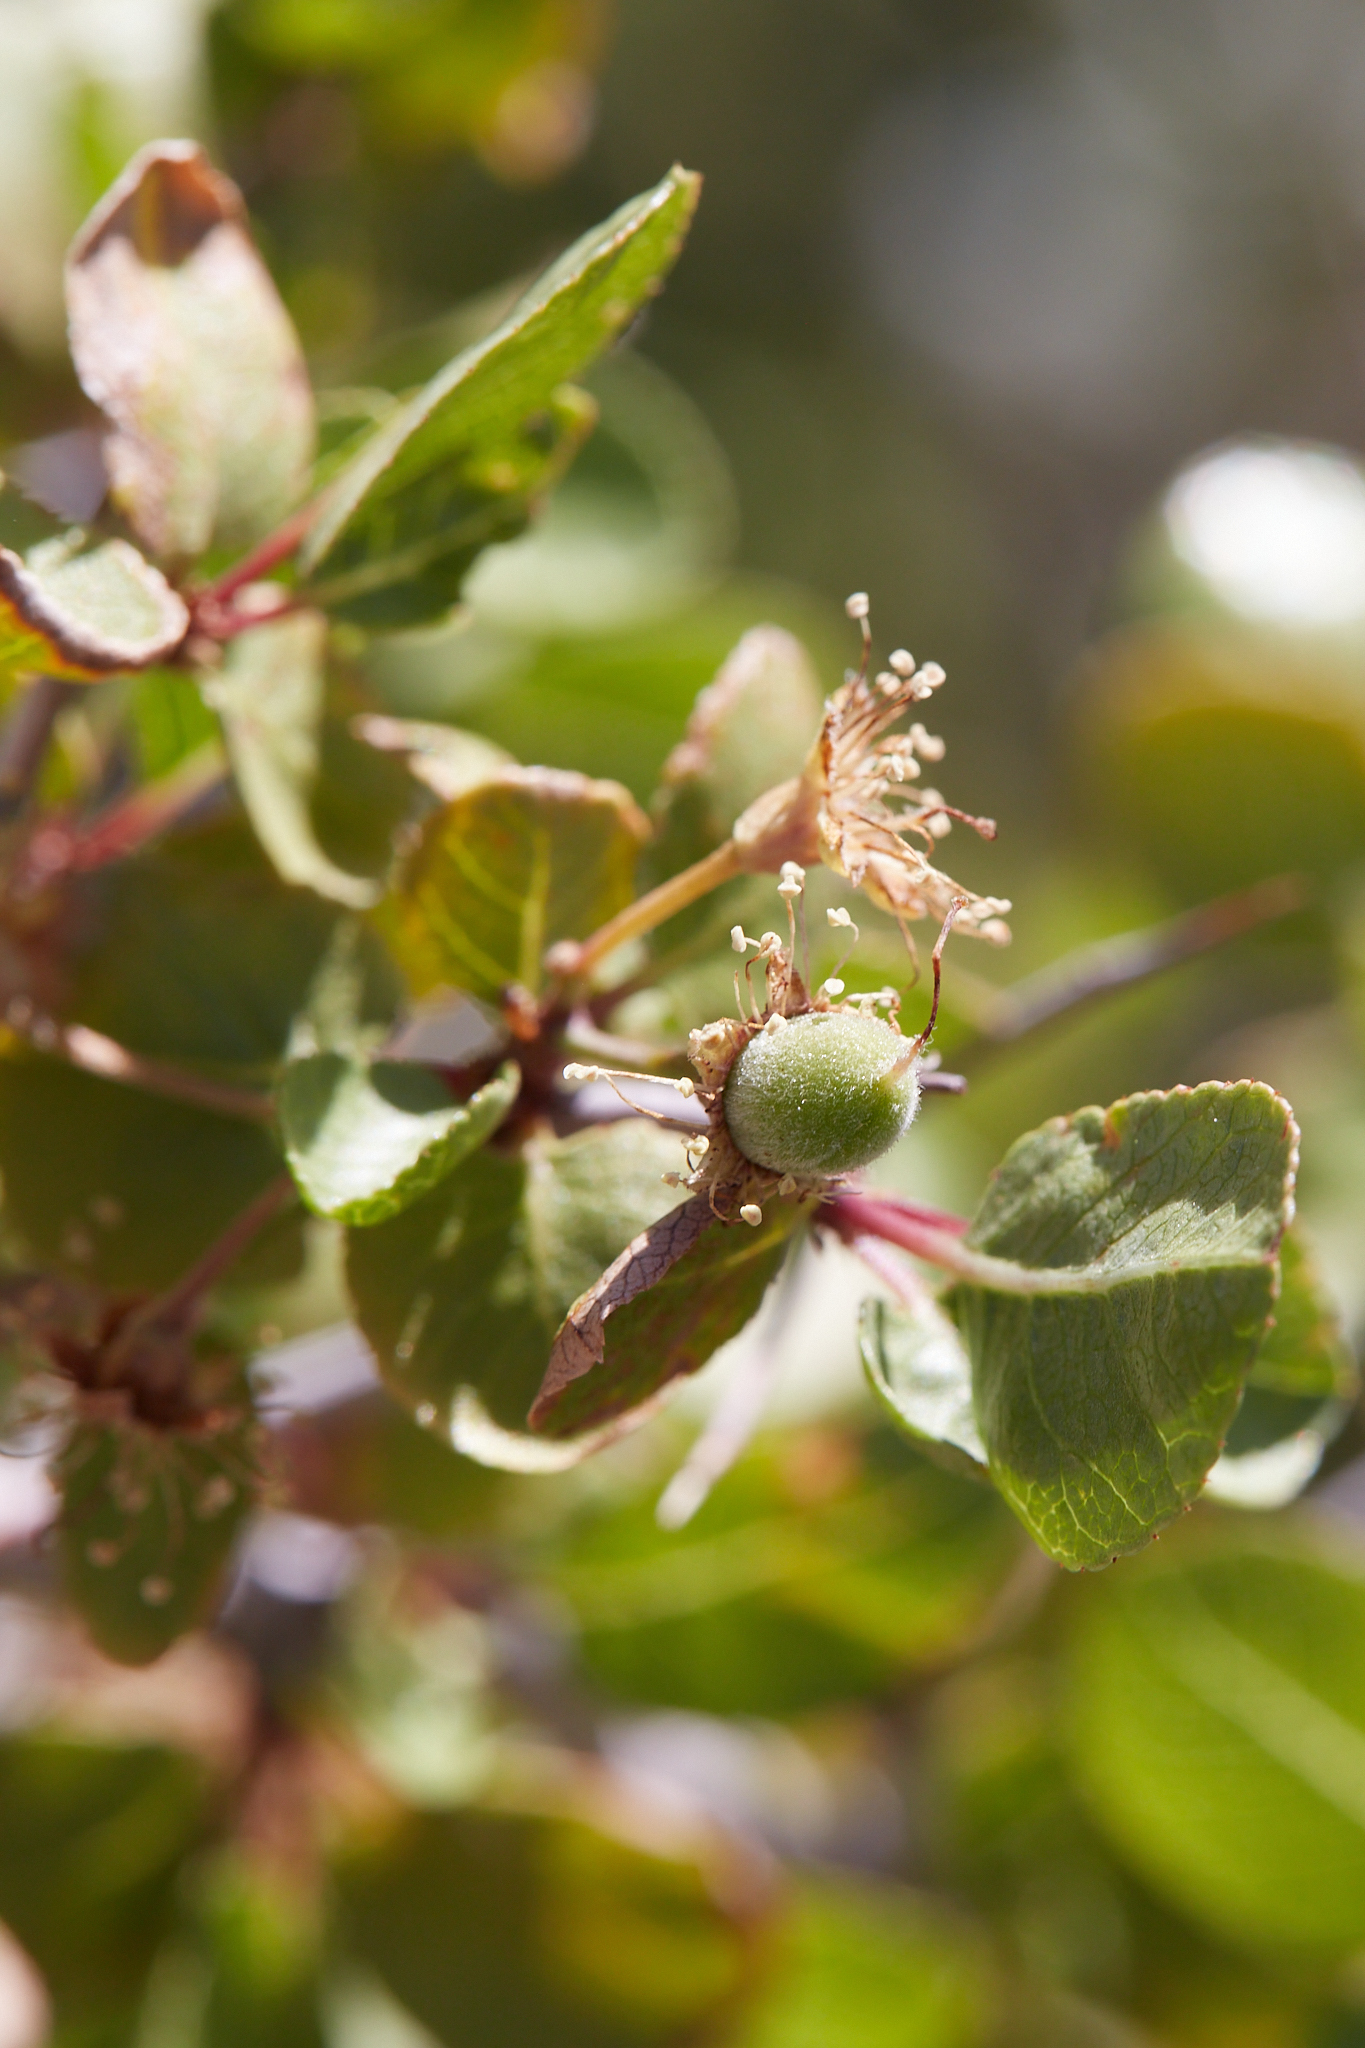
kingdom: Plantae
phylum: Tracheophyta
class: Magnoliopsida
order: Rosales
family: Rosaceae
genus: Prunus
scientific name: Prunus fremontii
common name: Desert apricot
